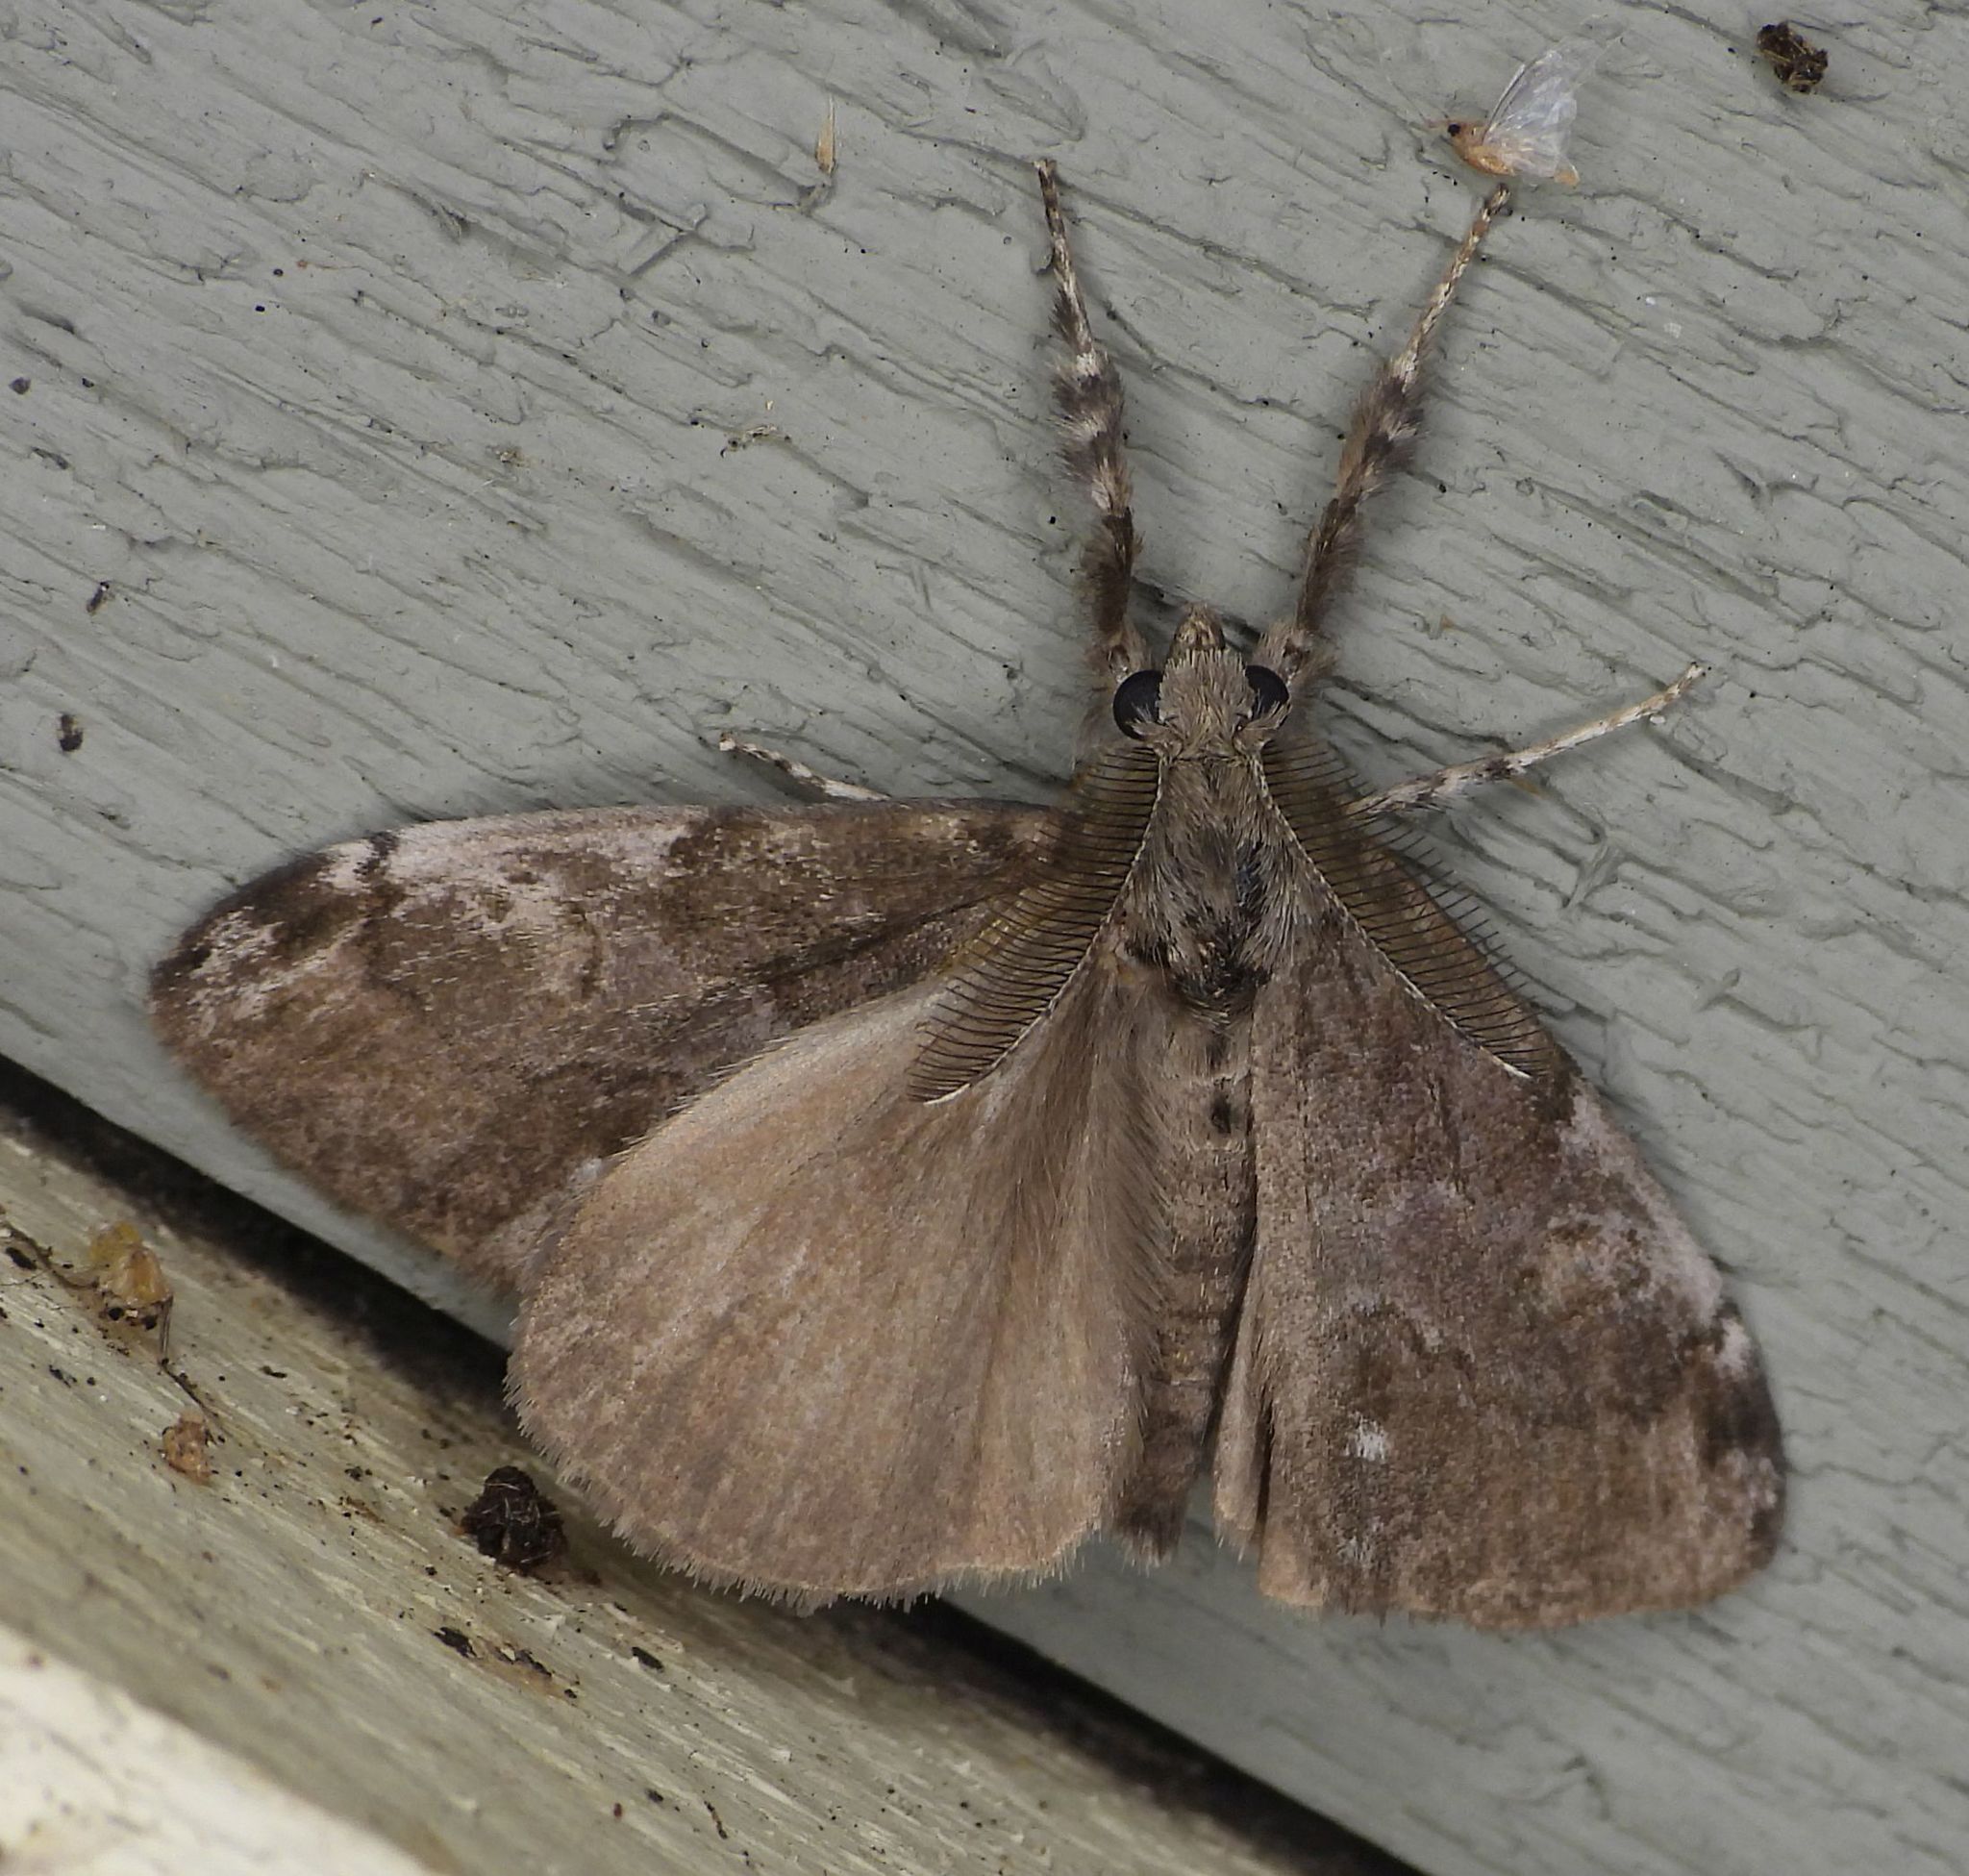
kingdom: Animalia
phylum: Arthropoda
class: Insecta
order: Lepidoptera
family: Erebidae
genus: Orgyia
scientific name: Orgyia leucostigma
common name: White-marked tussock moth
